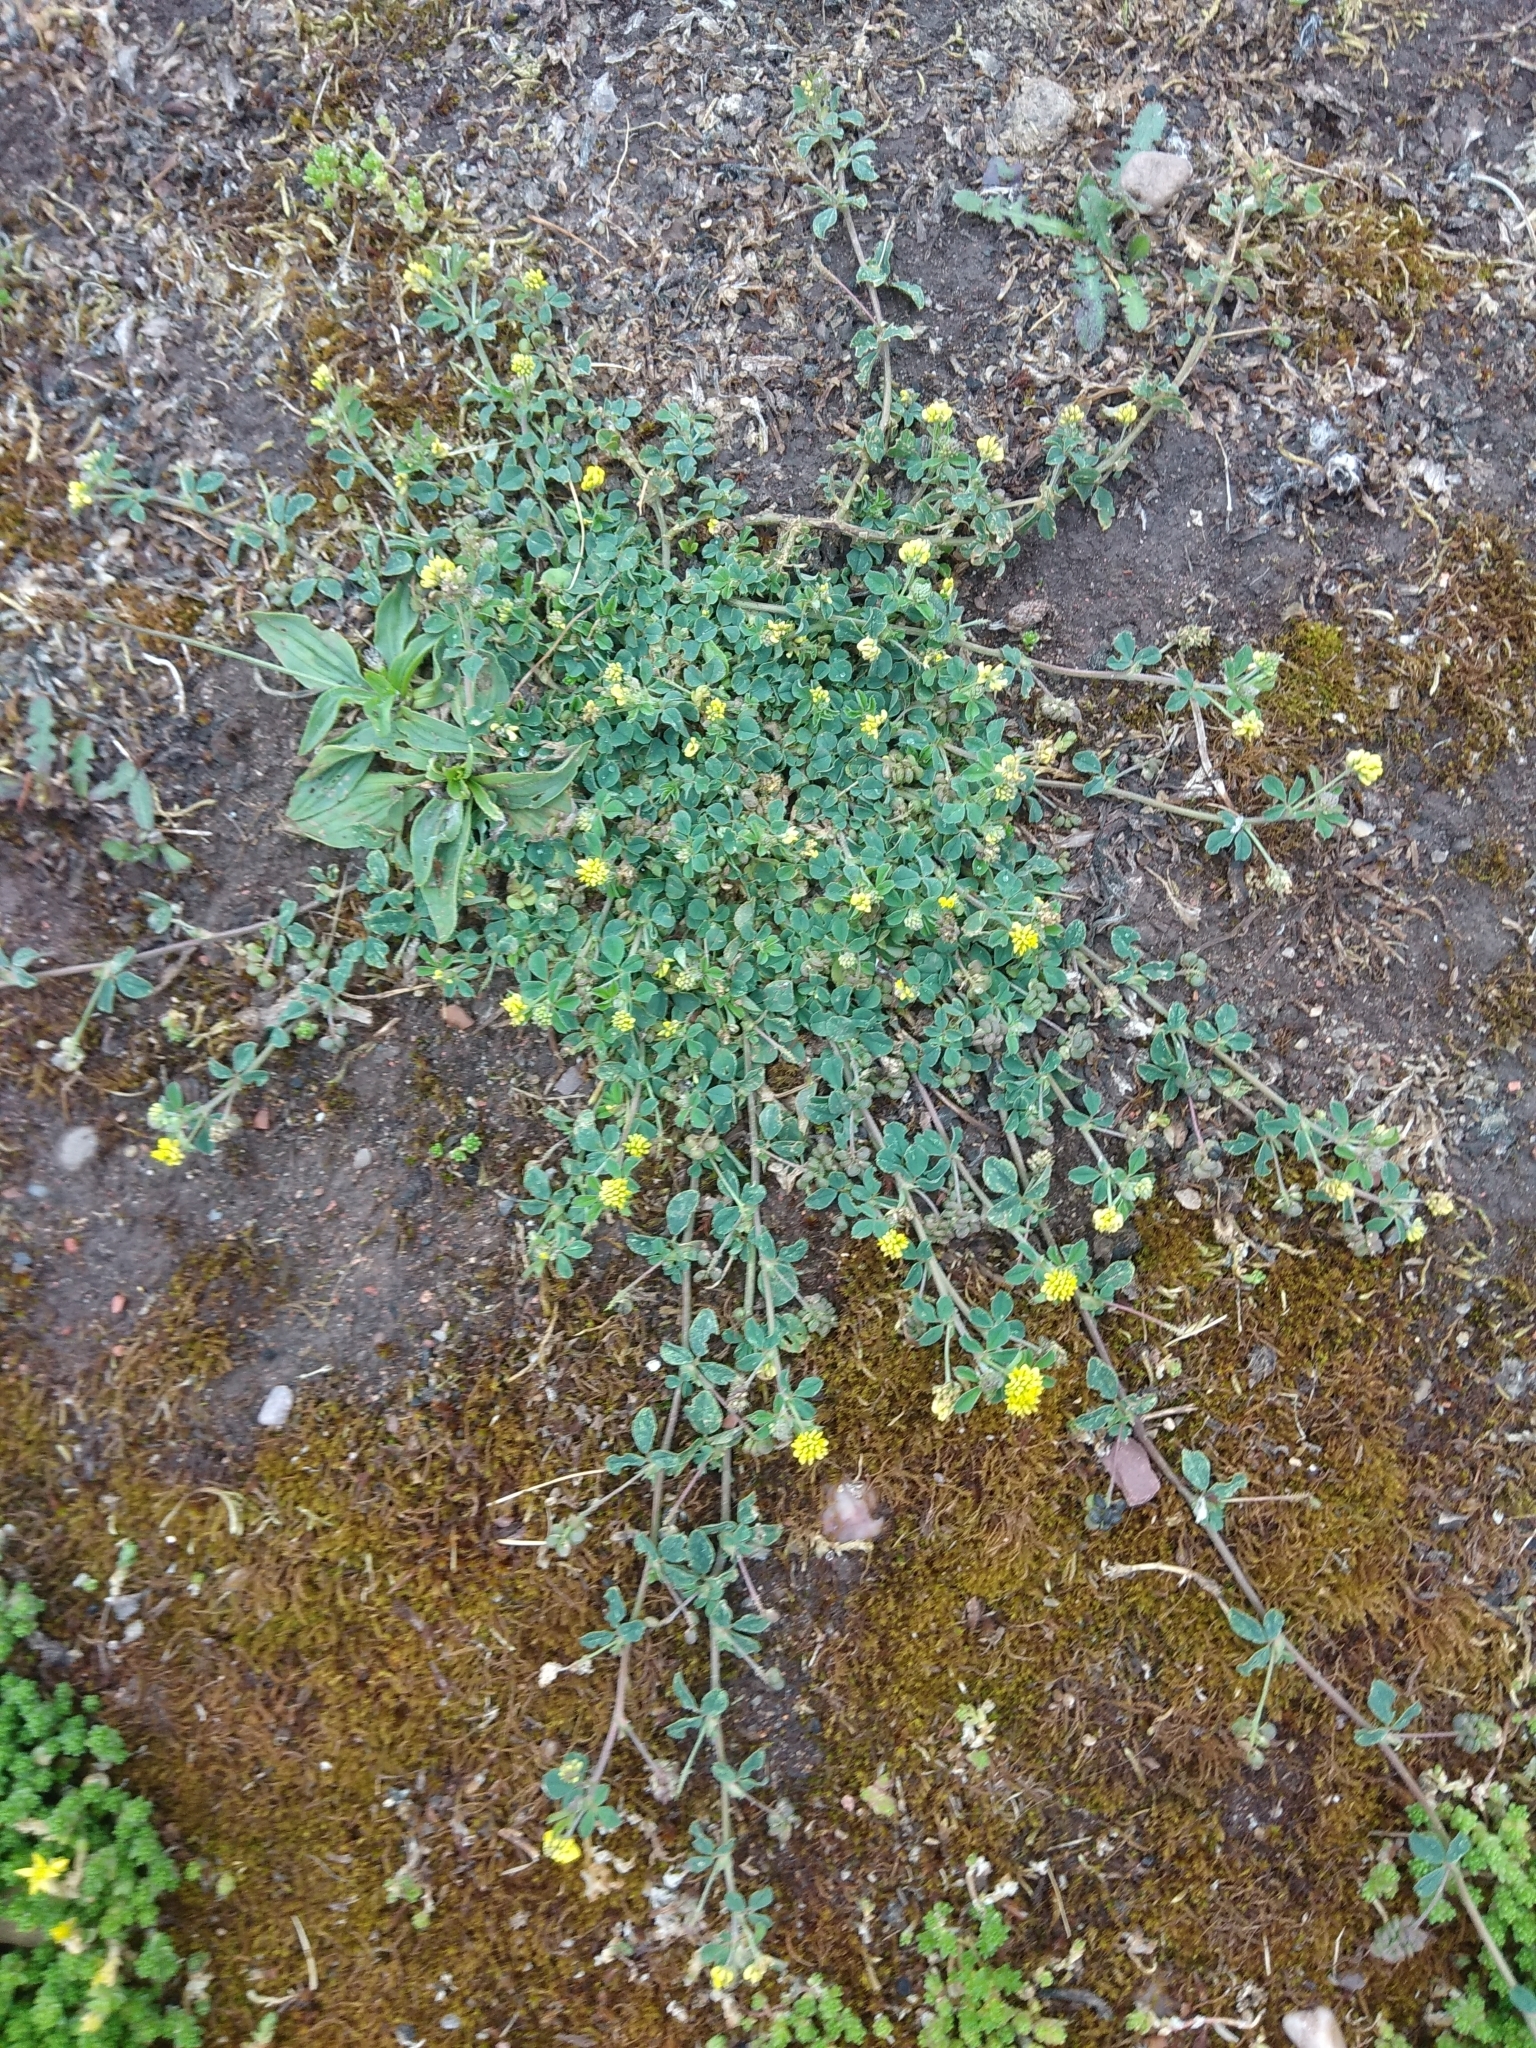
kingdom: Plantae
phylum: Tracheophyta
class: Magnoliopsida
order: Fabales
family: Fabaceae
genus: Medicago
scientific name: Medicago lupulina
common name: Black medick
